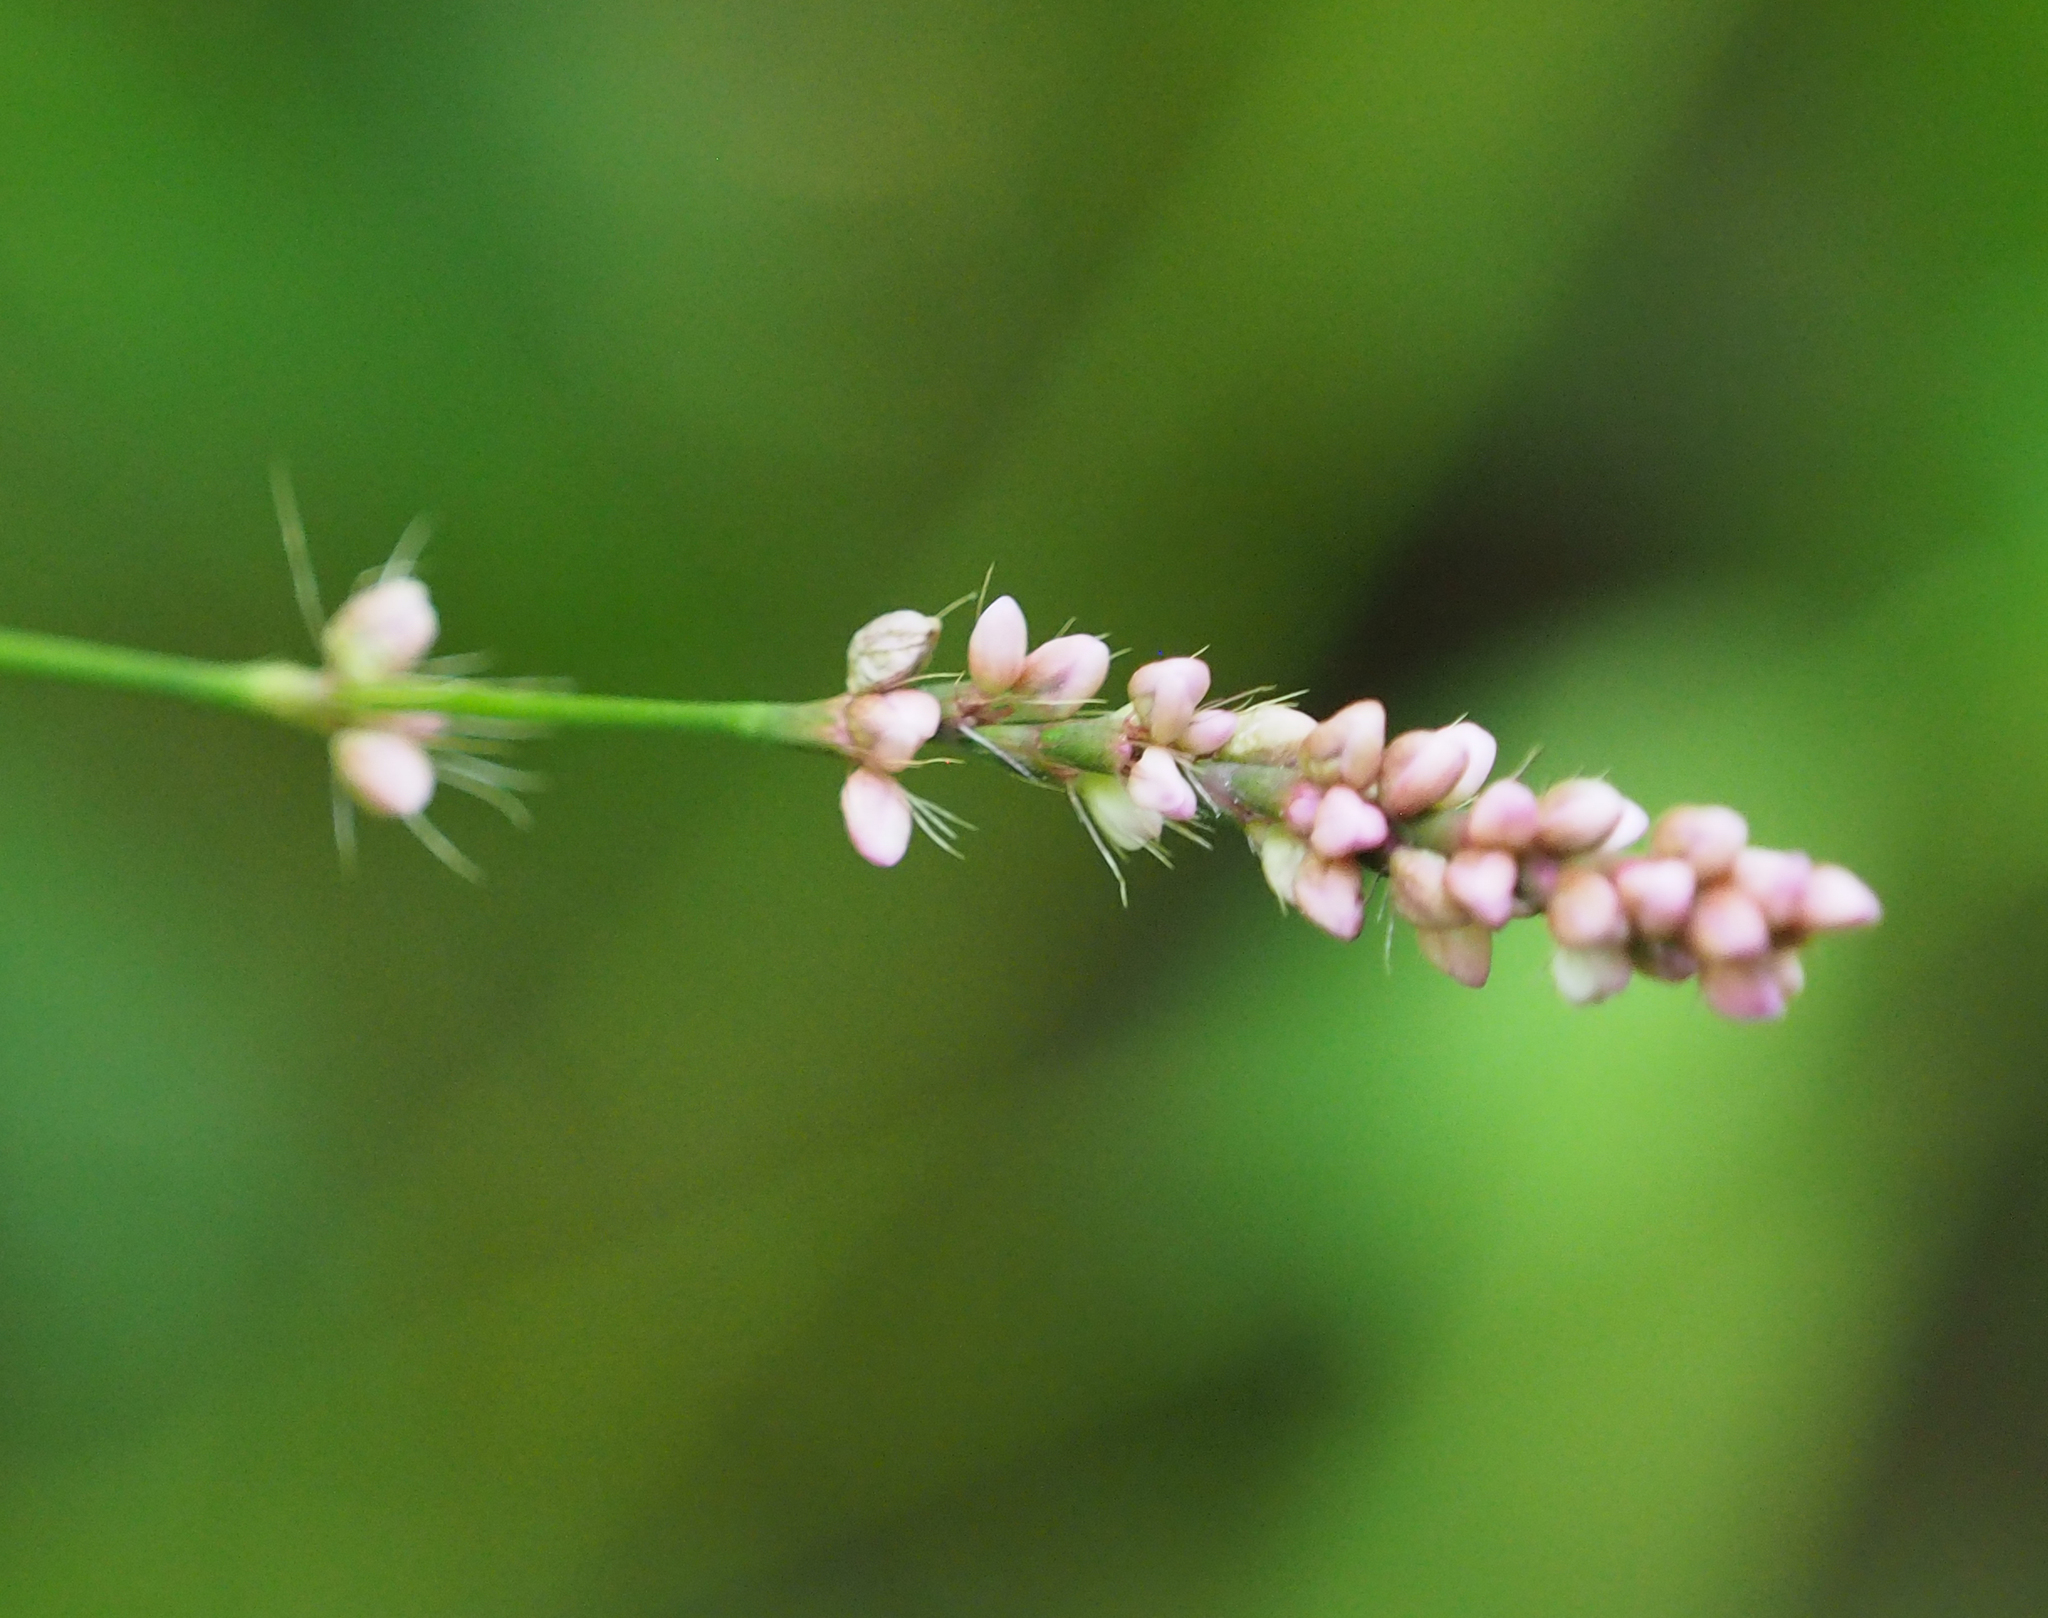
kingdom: Plantae
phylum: Tracheophyta
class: Magnoliopsida
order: Caryophyllales
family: Polygonaceae
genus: Persicaria
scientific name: Persicaria longiseta
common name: Bristly lady's-thumb
